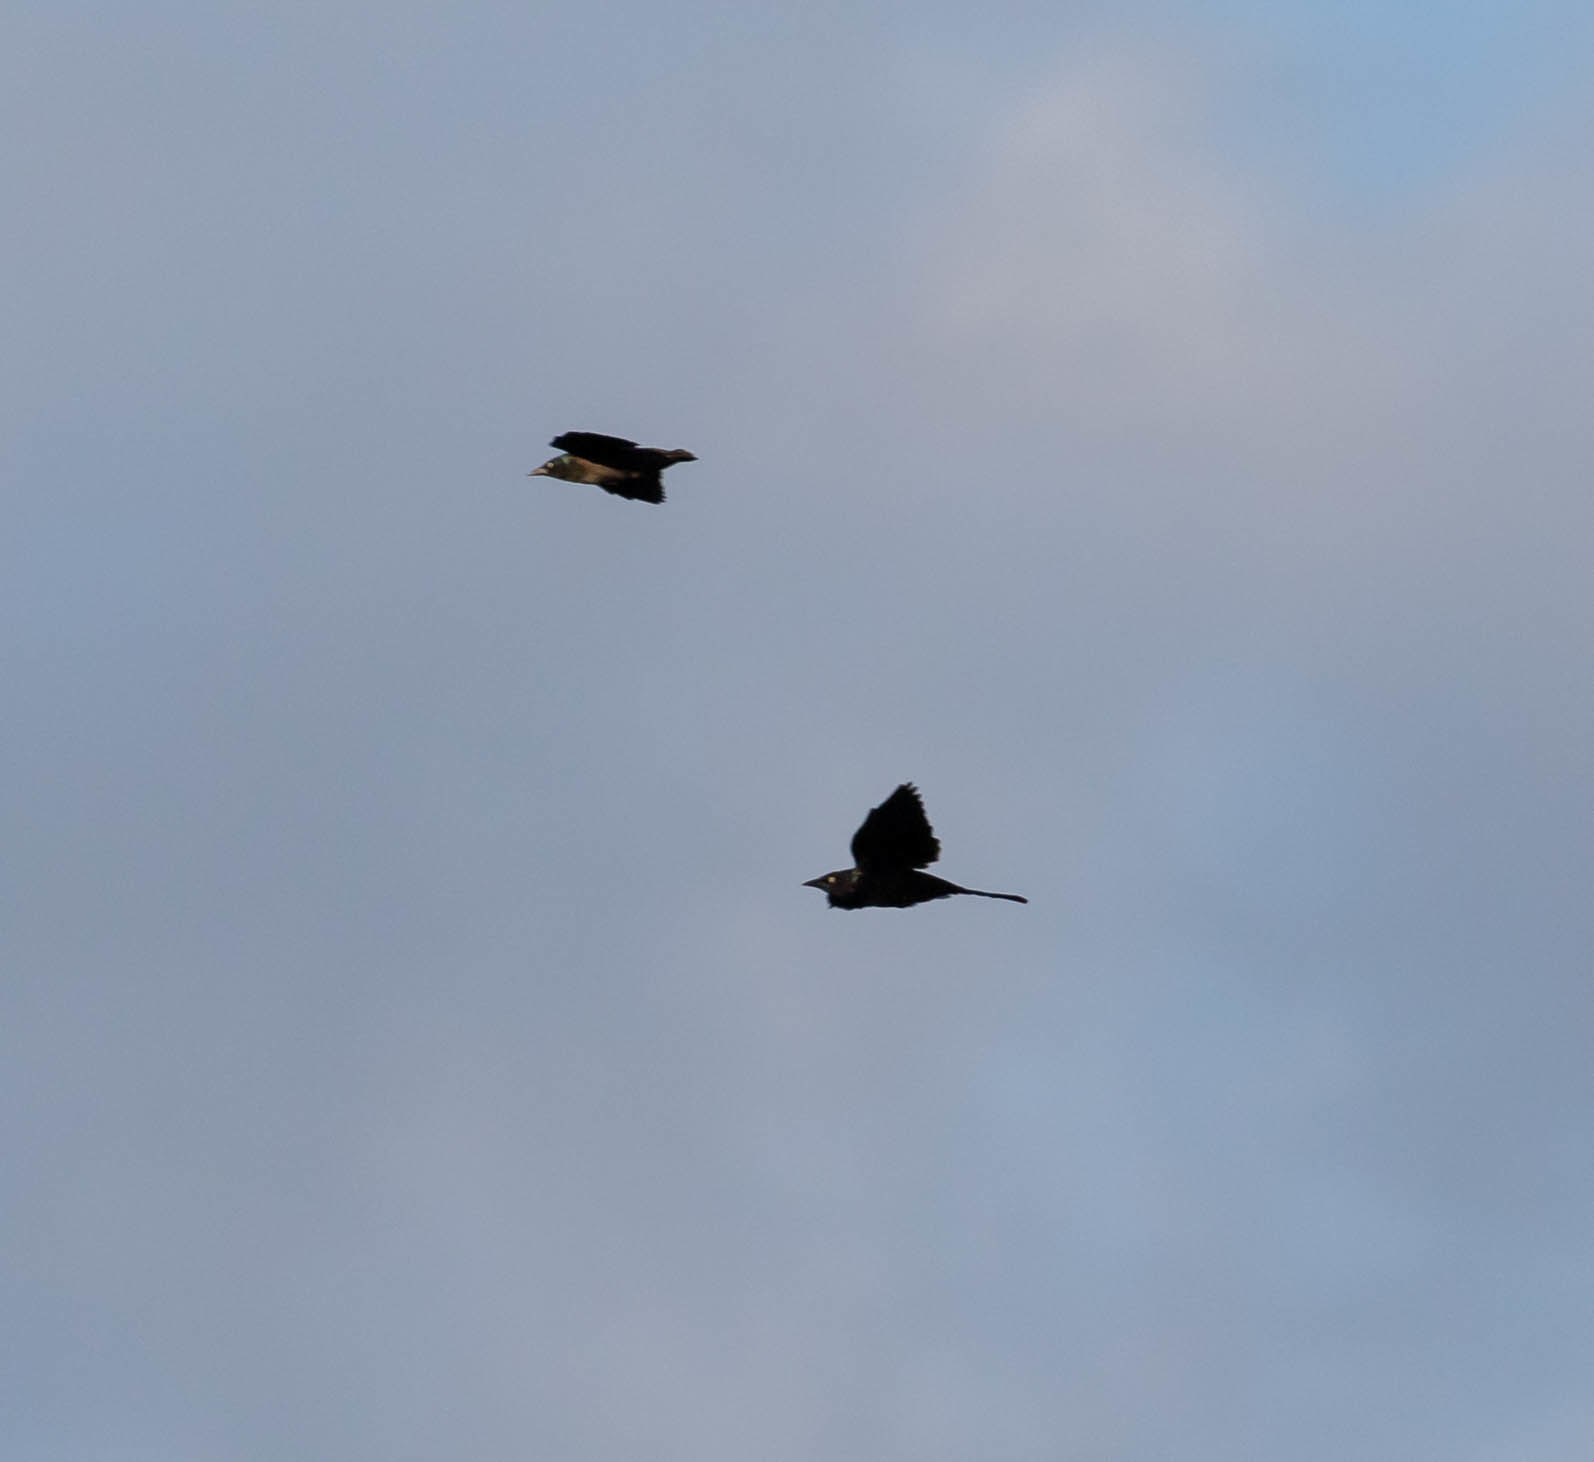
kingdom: Animalia
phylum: Chordata
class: Aves
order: Passeriformes
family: Icteridae
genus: Quiscalus
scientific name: Quiscalus quiscula
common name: Common grackle
